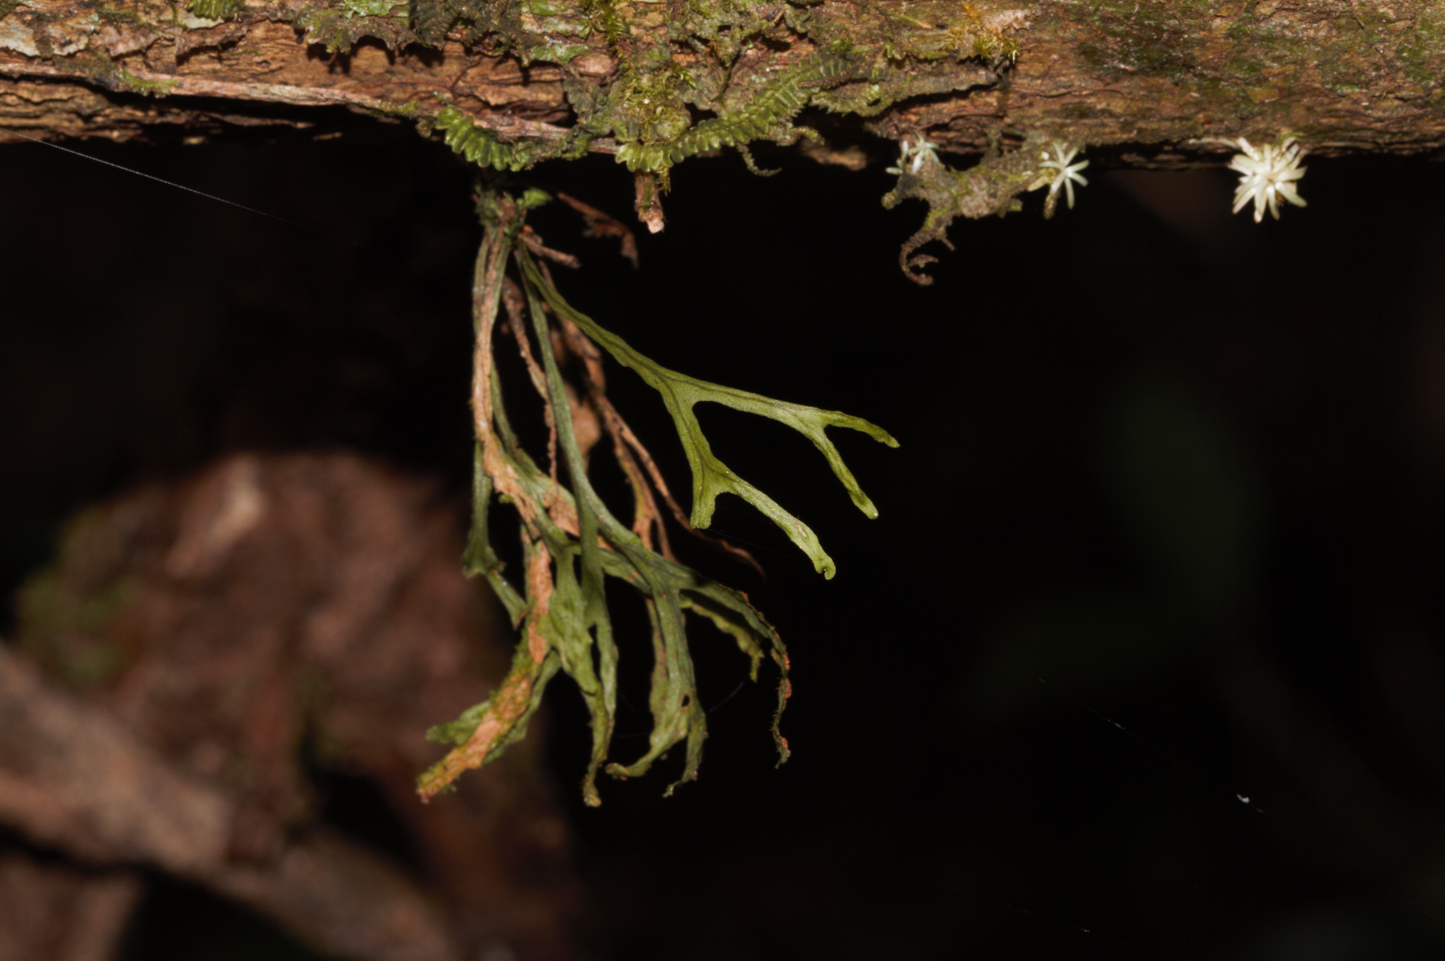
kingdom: Plantae
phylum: Tracheophyta
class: Polypodiopsida
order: Polypodiales
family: Polypodiaceae
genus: Cochlidium
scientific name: Cochlidium furcatum
